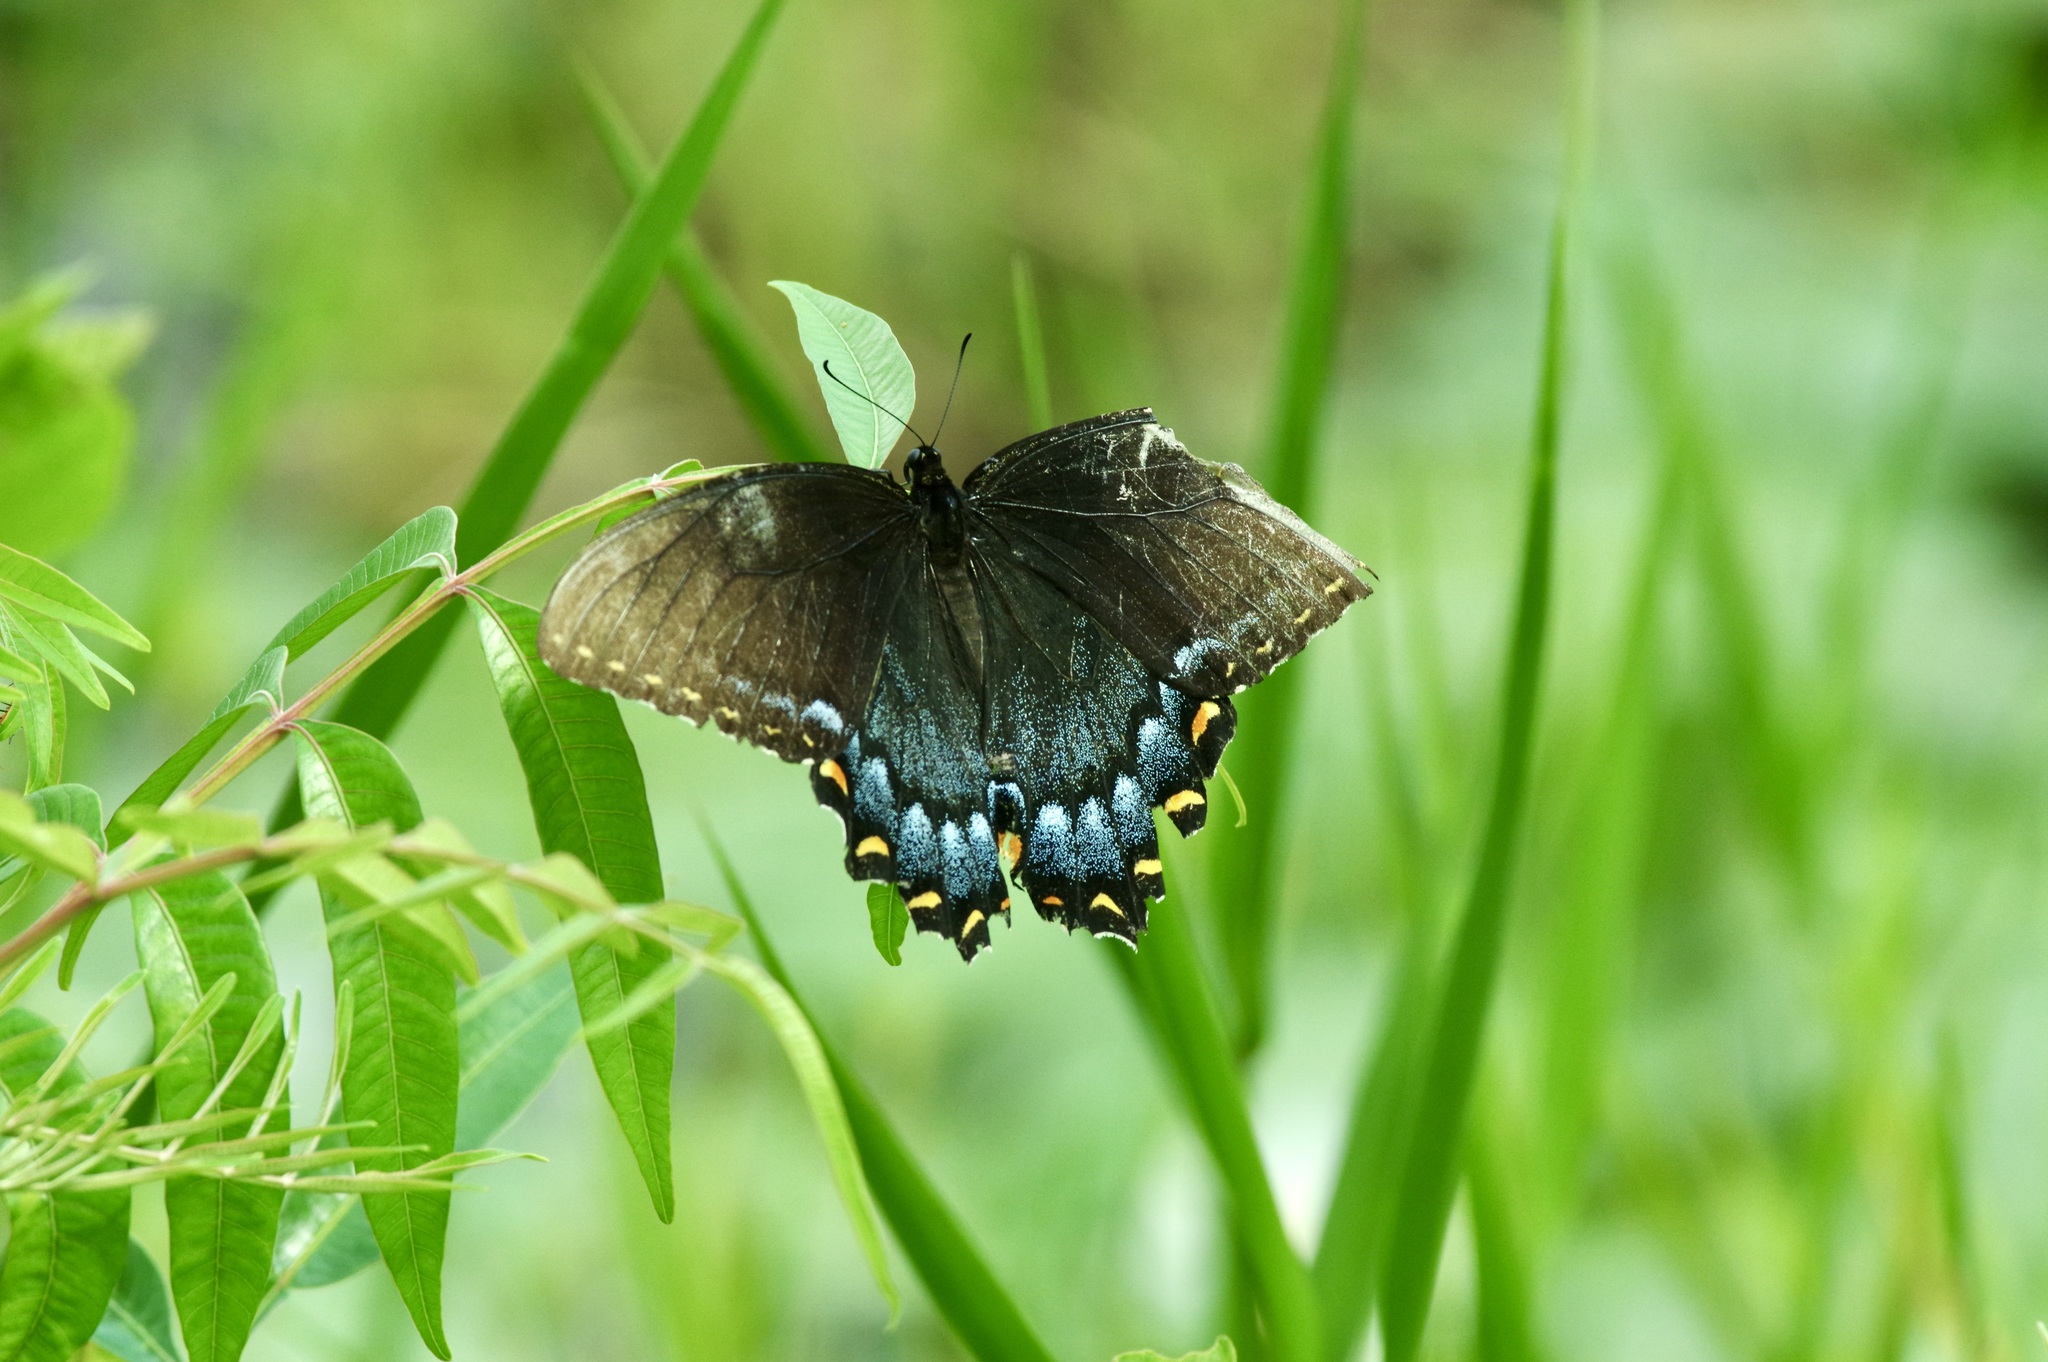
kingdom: Animalia
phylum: Arthropoda
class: Insecta
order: Lepidoptera
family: Papilionidae
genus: Papilio
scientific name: Papilio glaucus
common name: Tiger swallowtail
